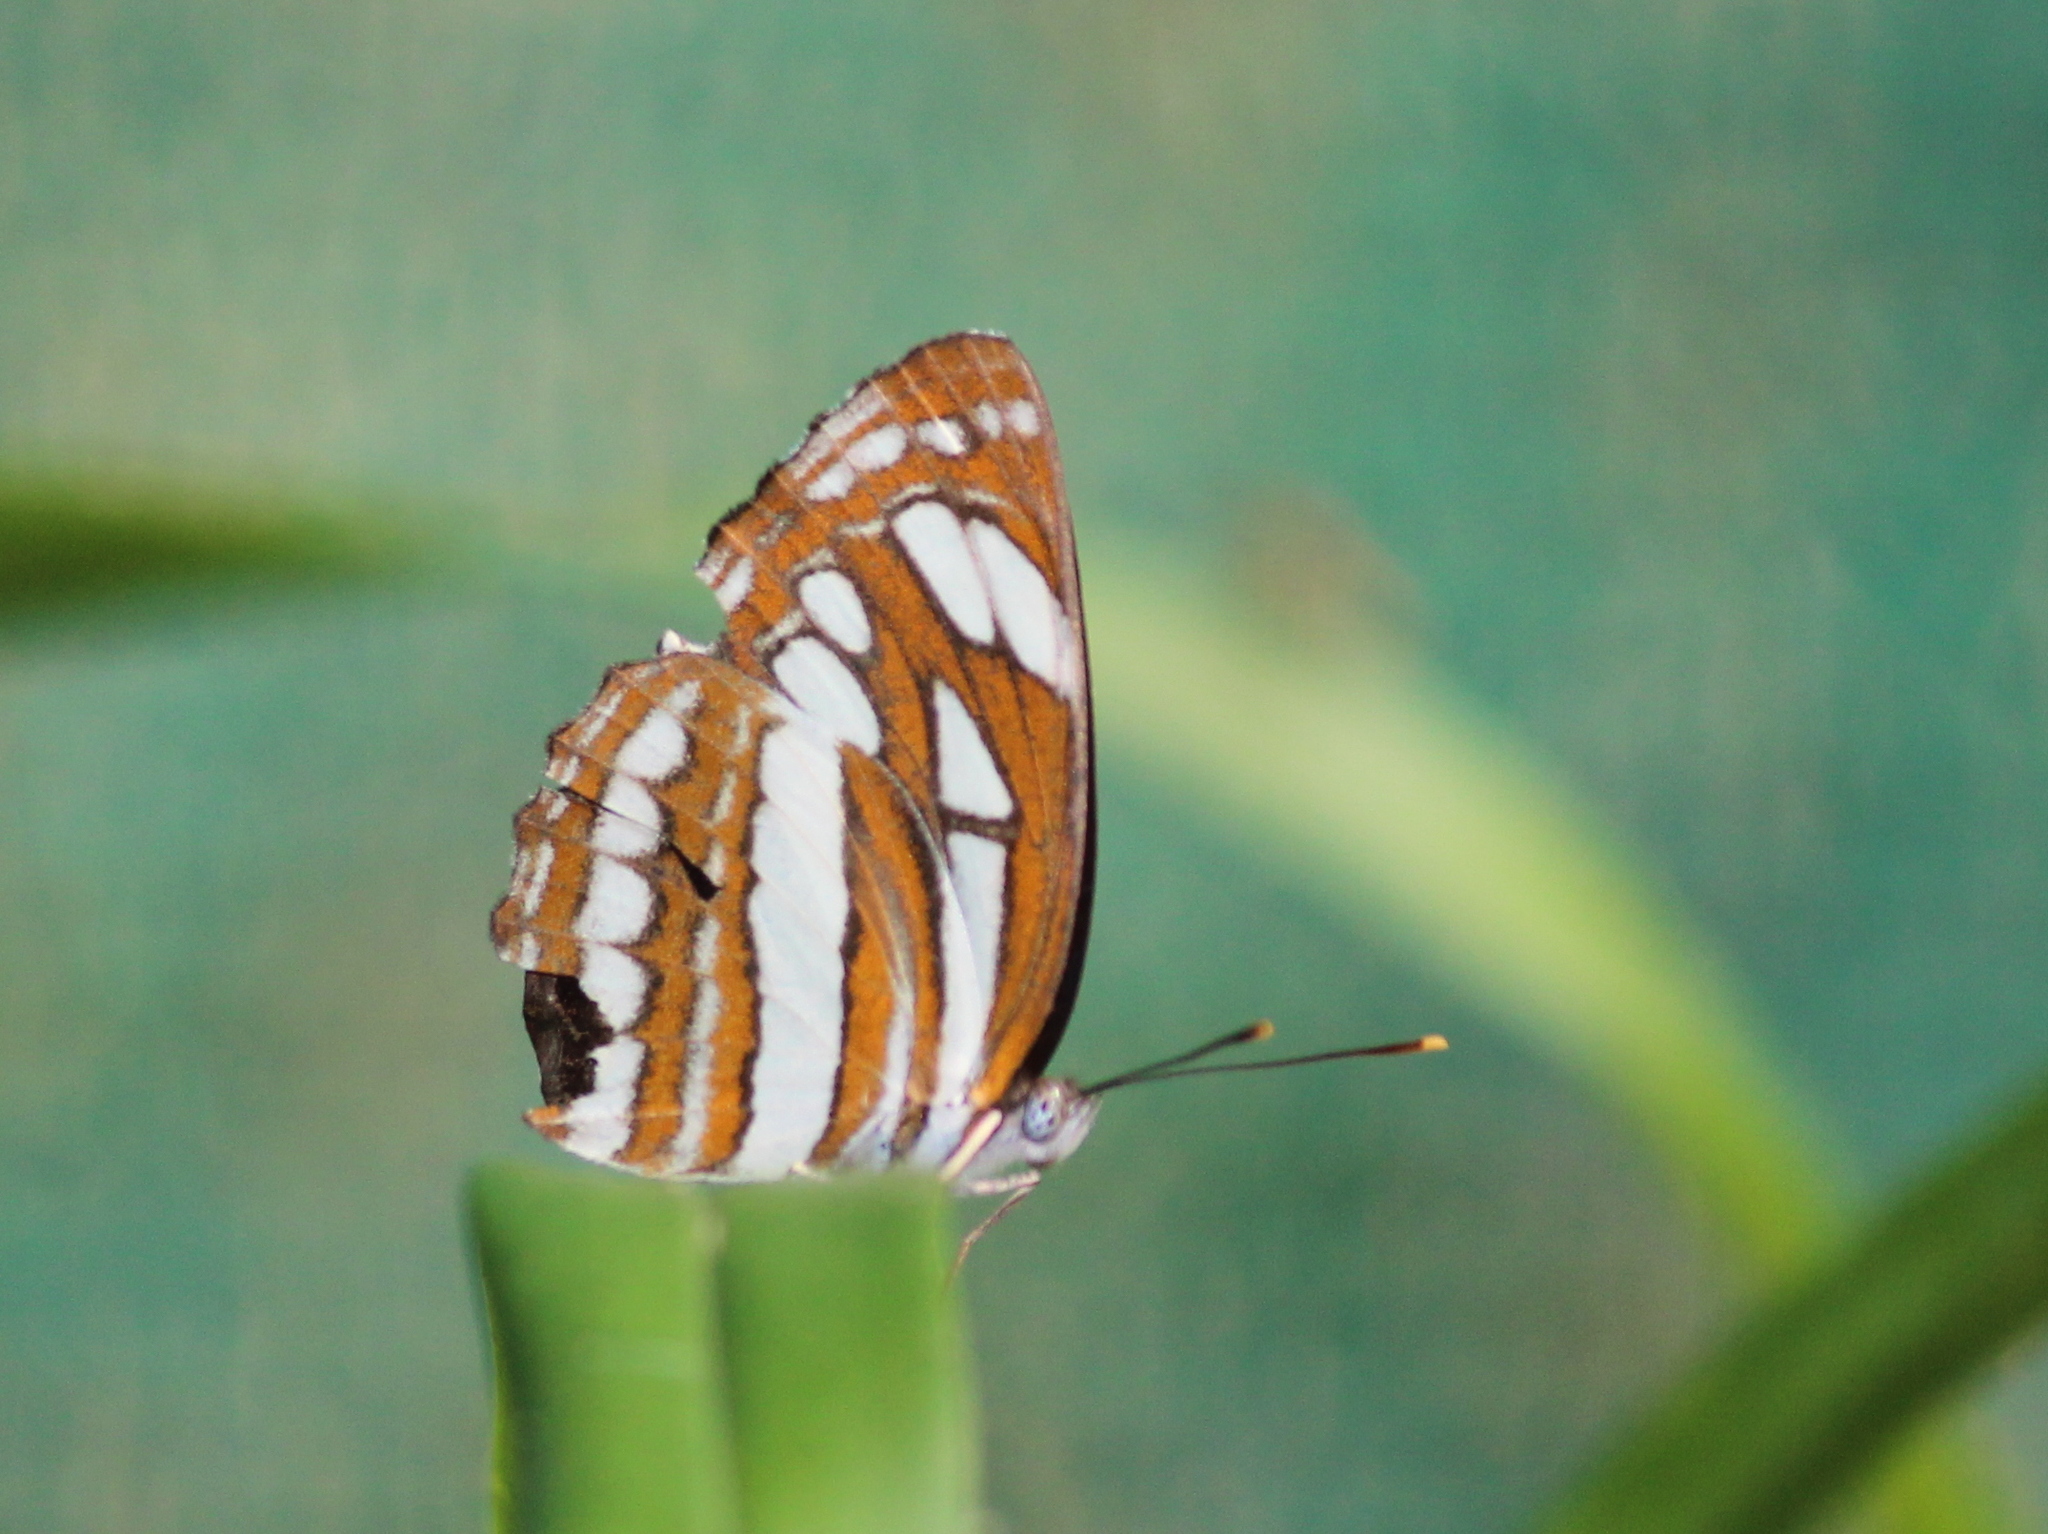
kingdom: Animalia
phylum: Arthropoda
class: Insecta
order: Lepidoptera
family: Nymphalidae
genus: Neptis
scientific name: Neptis hylas
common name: Common sailer
